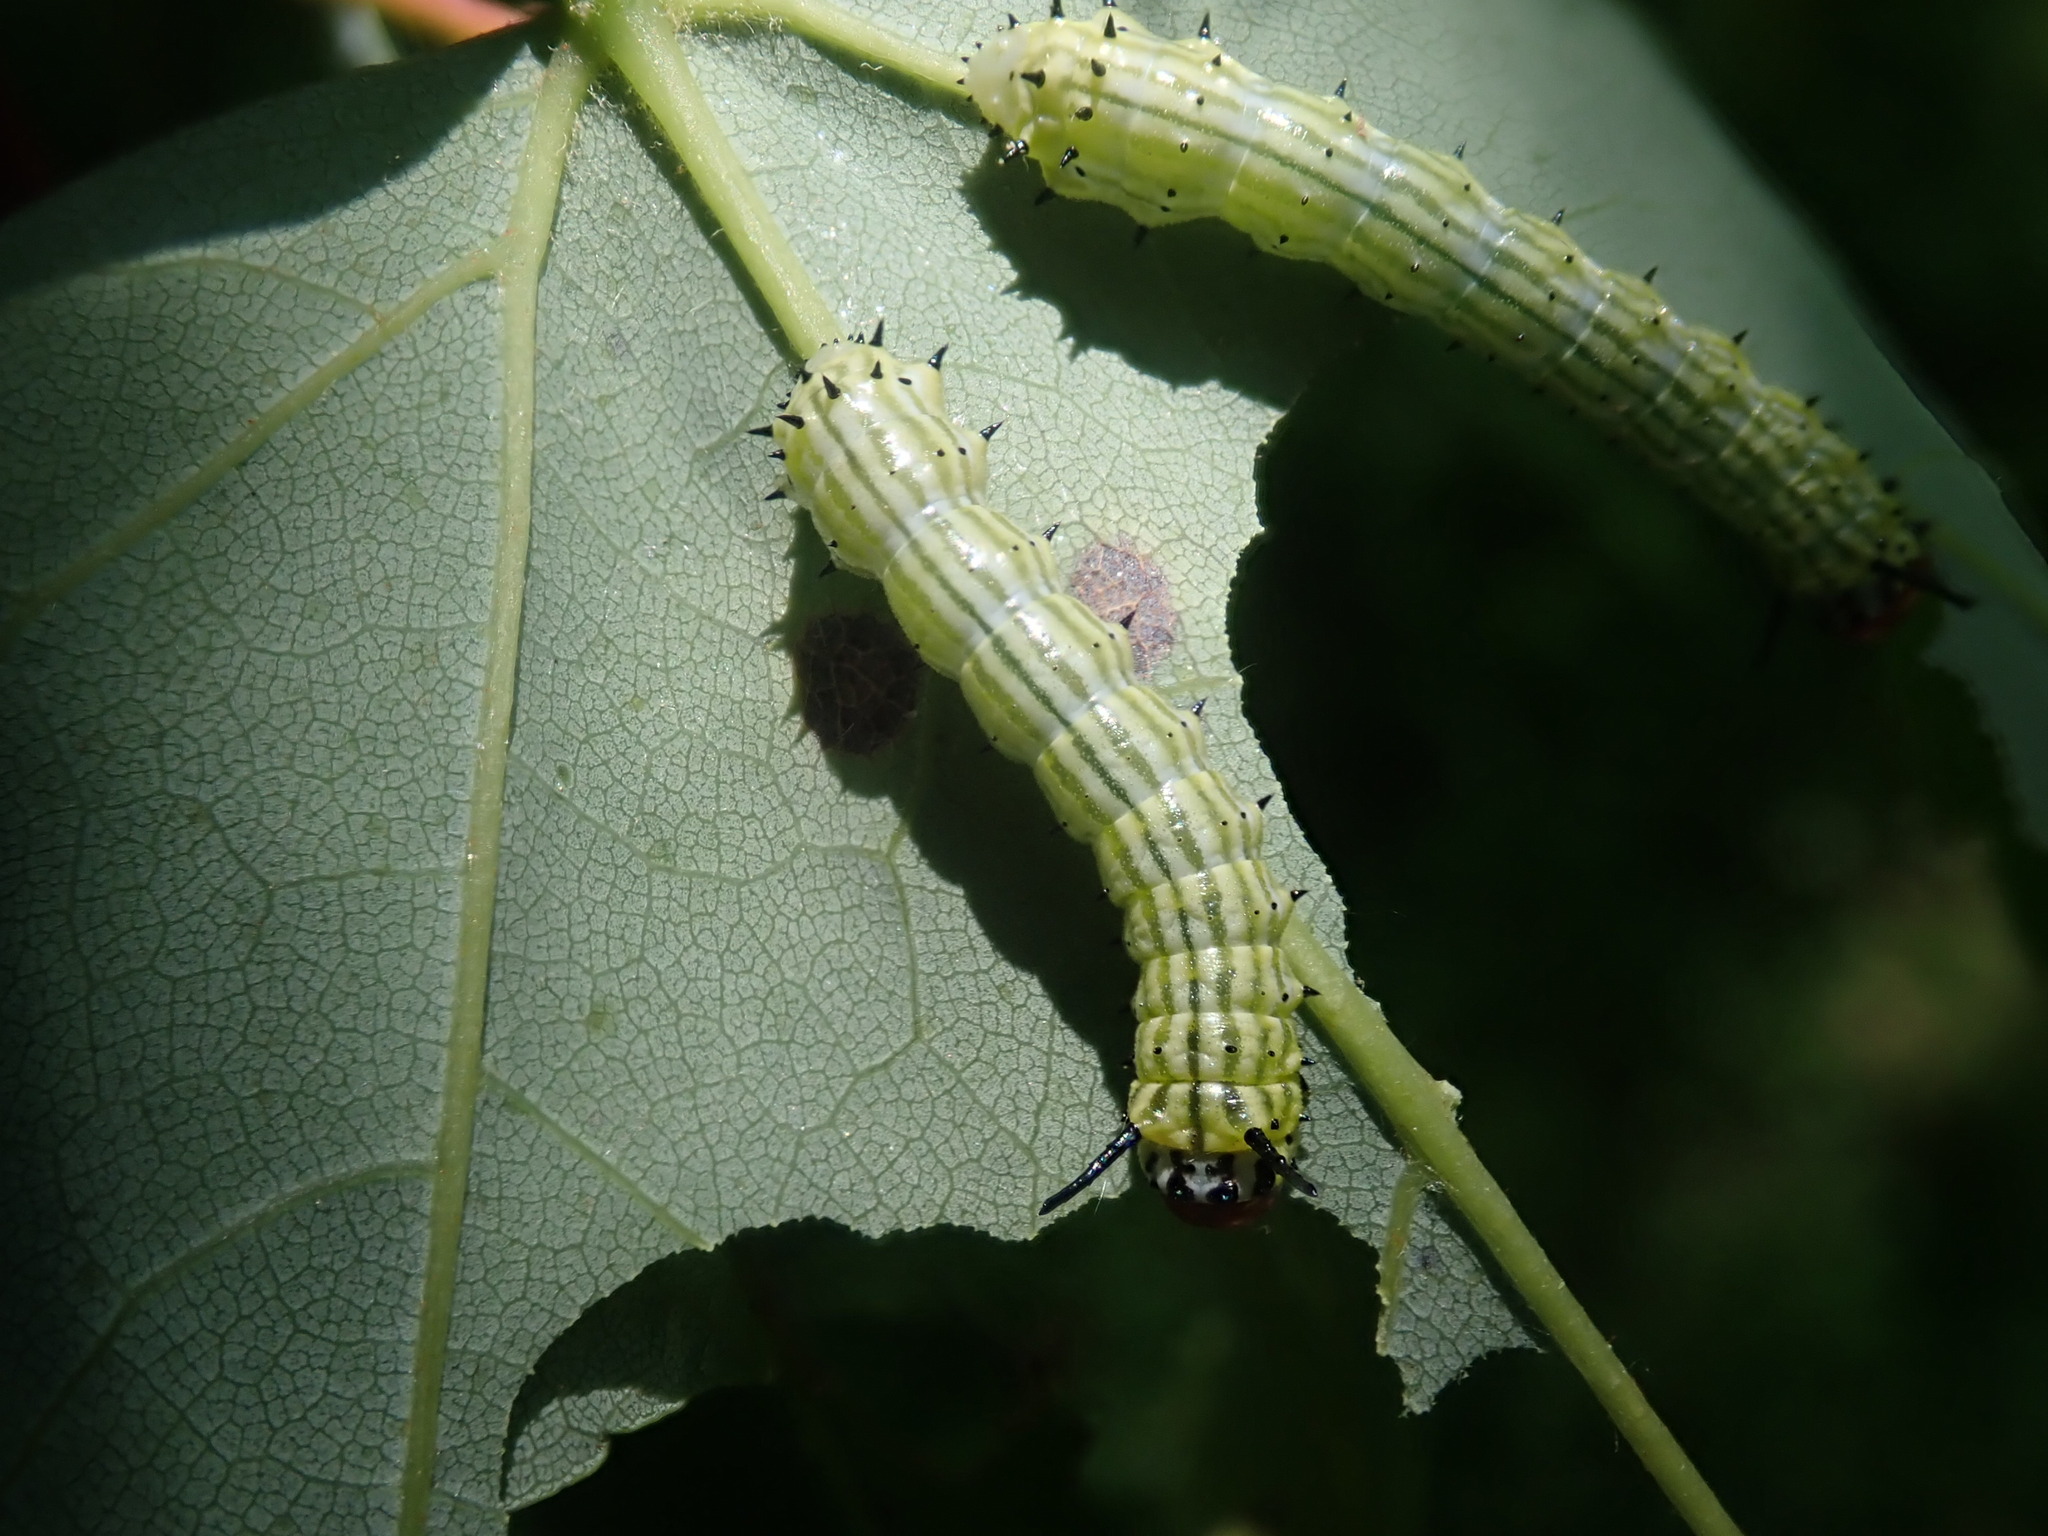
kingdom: Animalia
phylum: Arthropoda
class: Insecta
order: Lepidoptera
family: Saturniidae
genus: Dryocampa
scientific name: Dryocampa rubicunda
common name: Rosy maple moth
